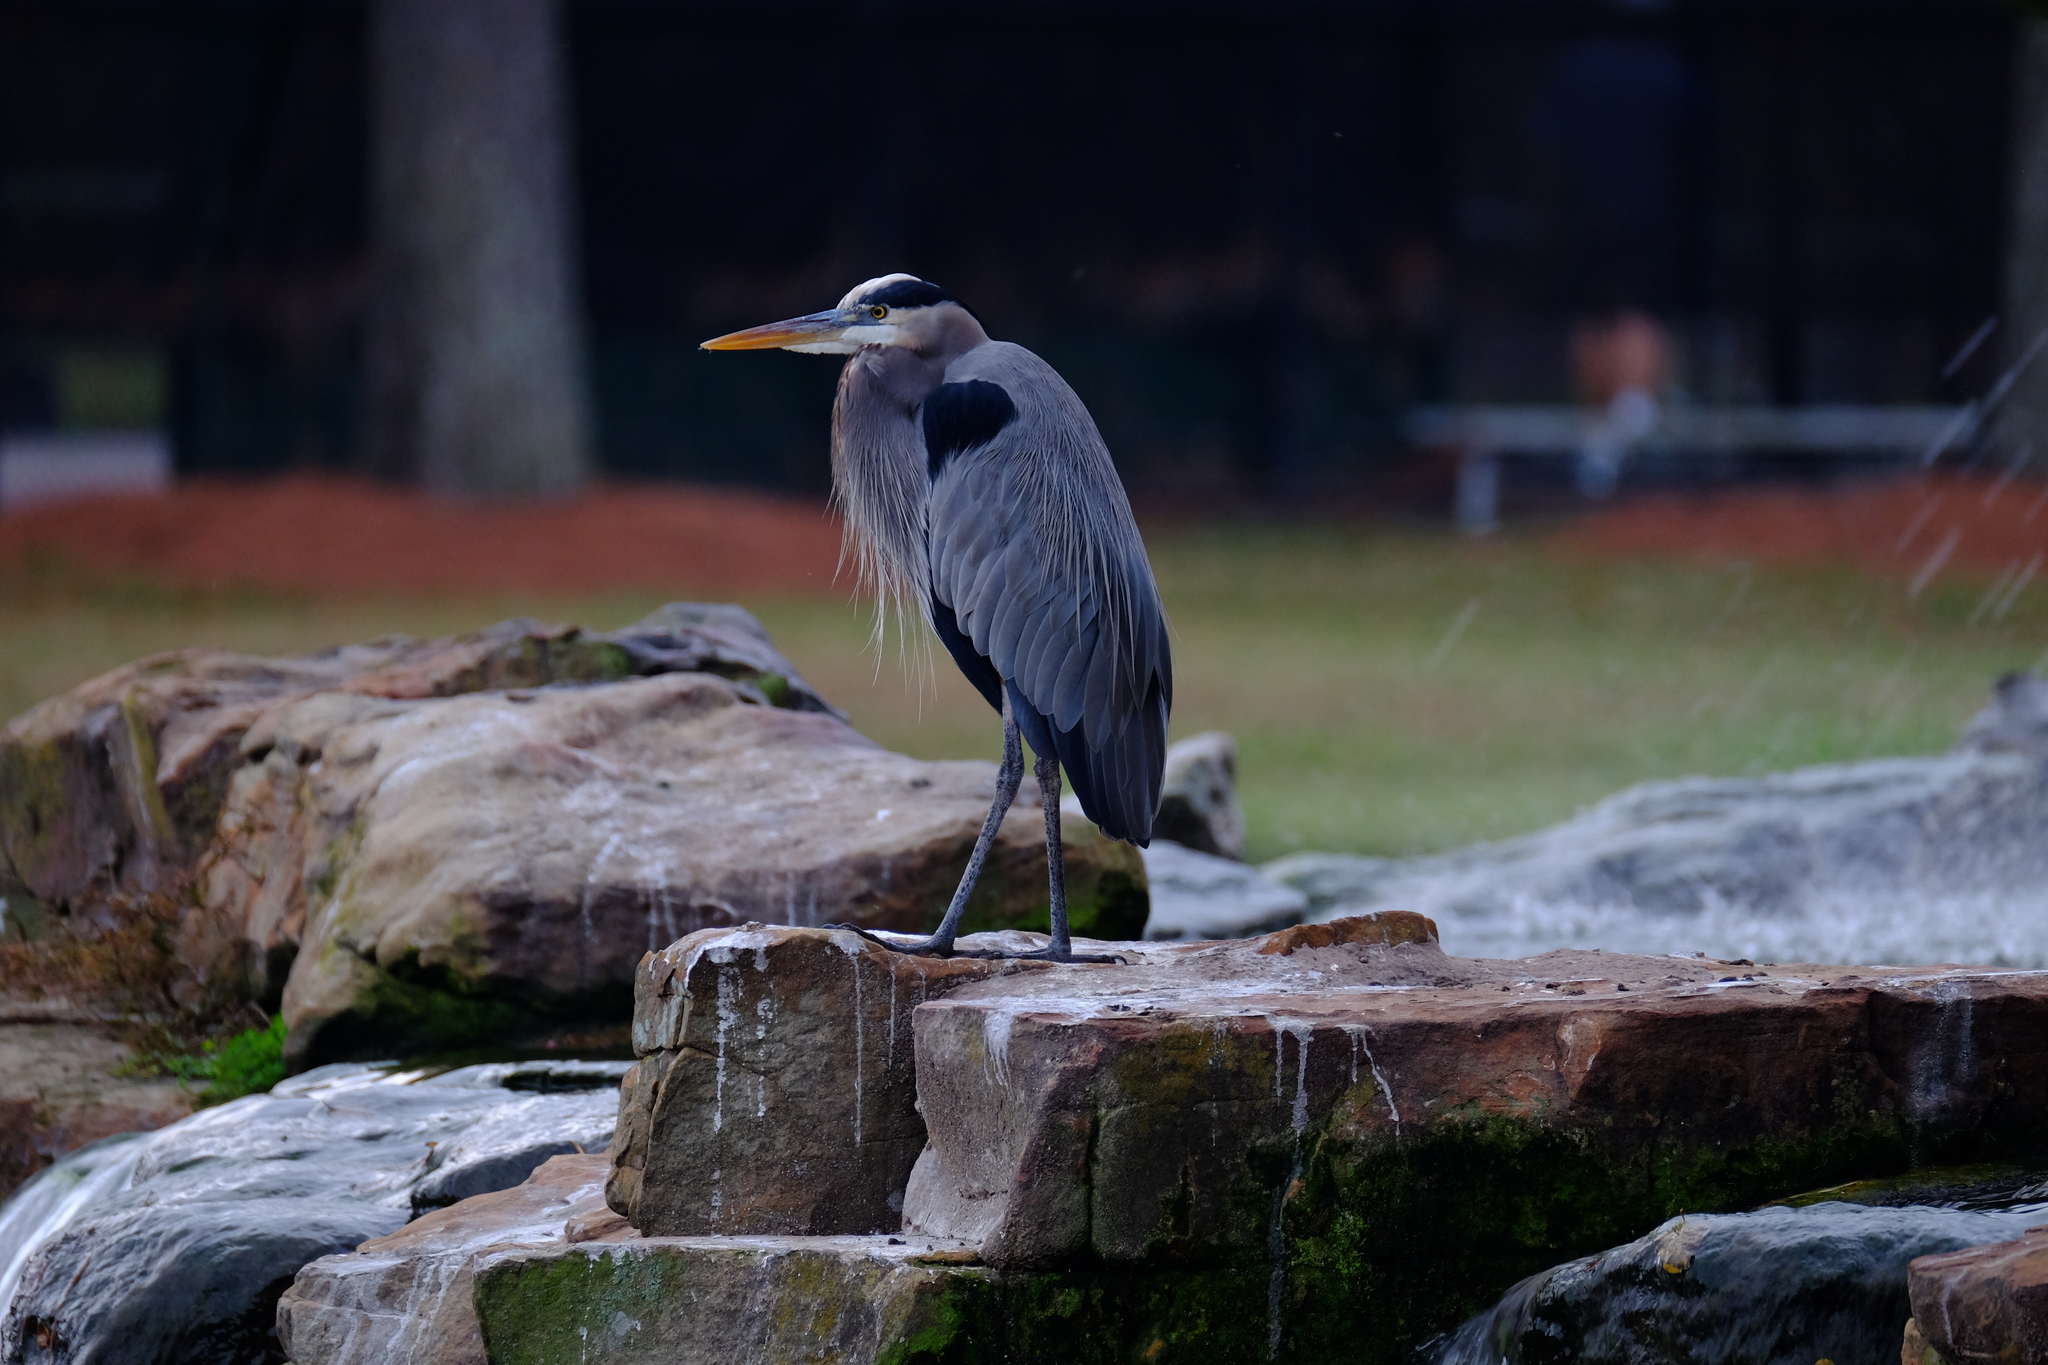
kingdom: Animalia
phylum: Chordata
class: Aves
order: Pelecaniformes
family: Ardeidae
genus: Ardea
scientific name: Ardea herodias
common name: Great blue heron
